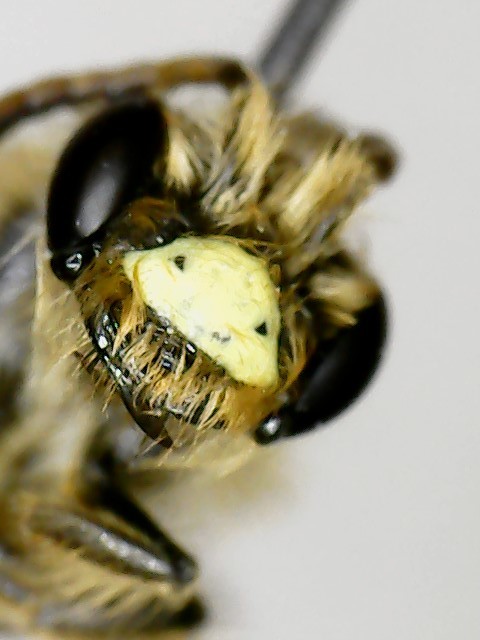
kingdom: Animalia
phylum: Arthropoda
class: Insecta
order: Hymenoptera
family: Andrenidae
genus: Andrena
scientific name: Andrena miserabilis
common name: Miserable mining bee
